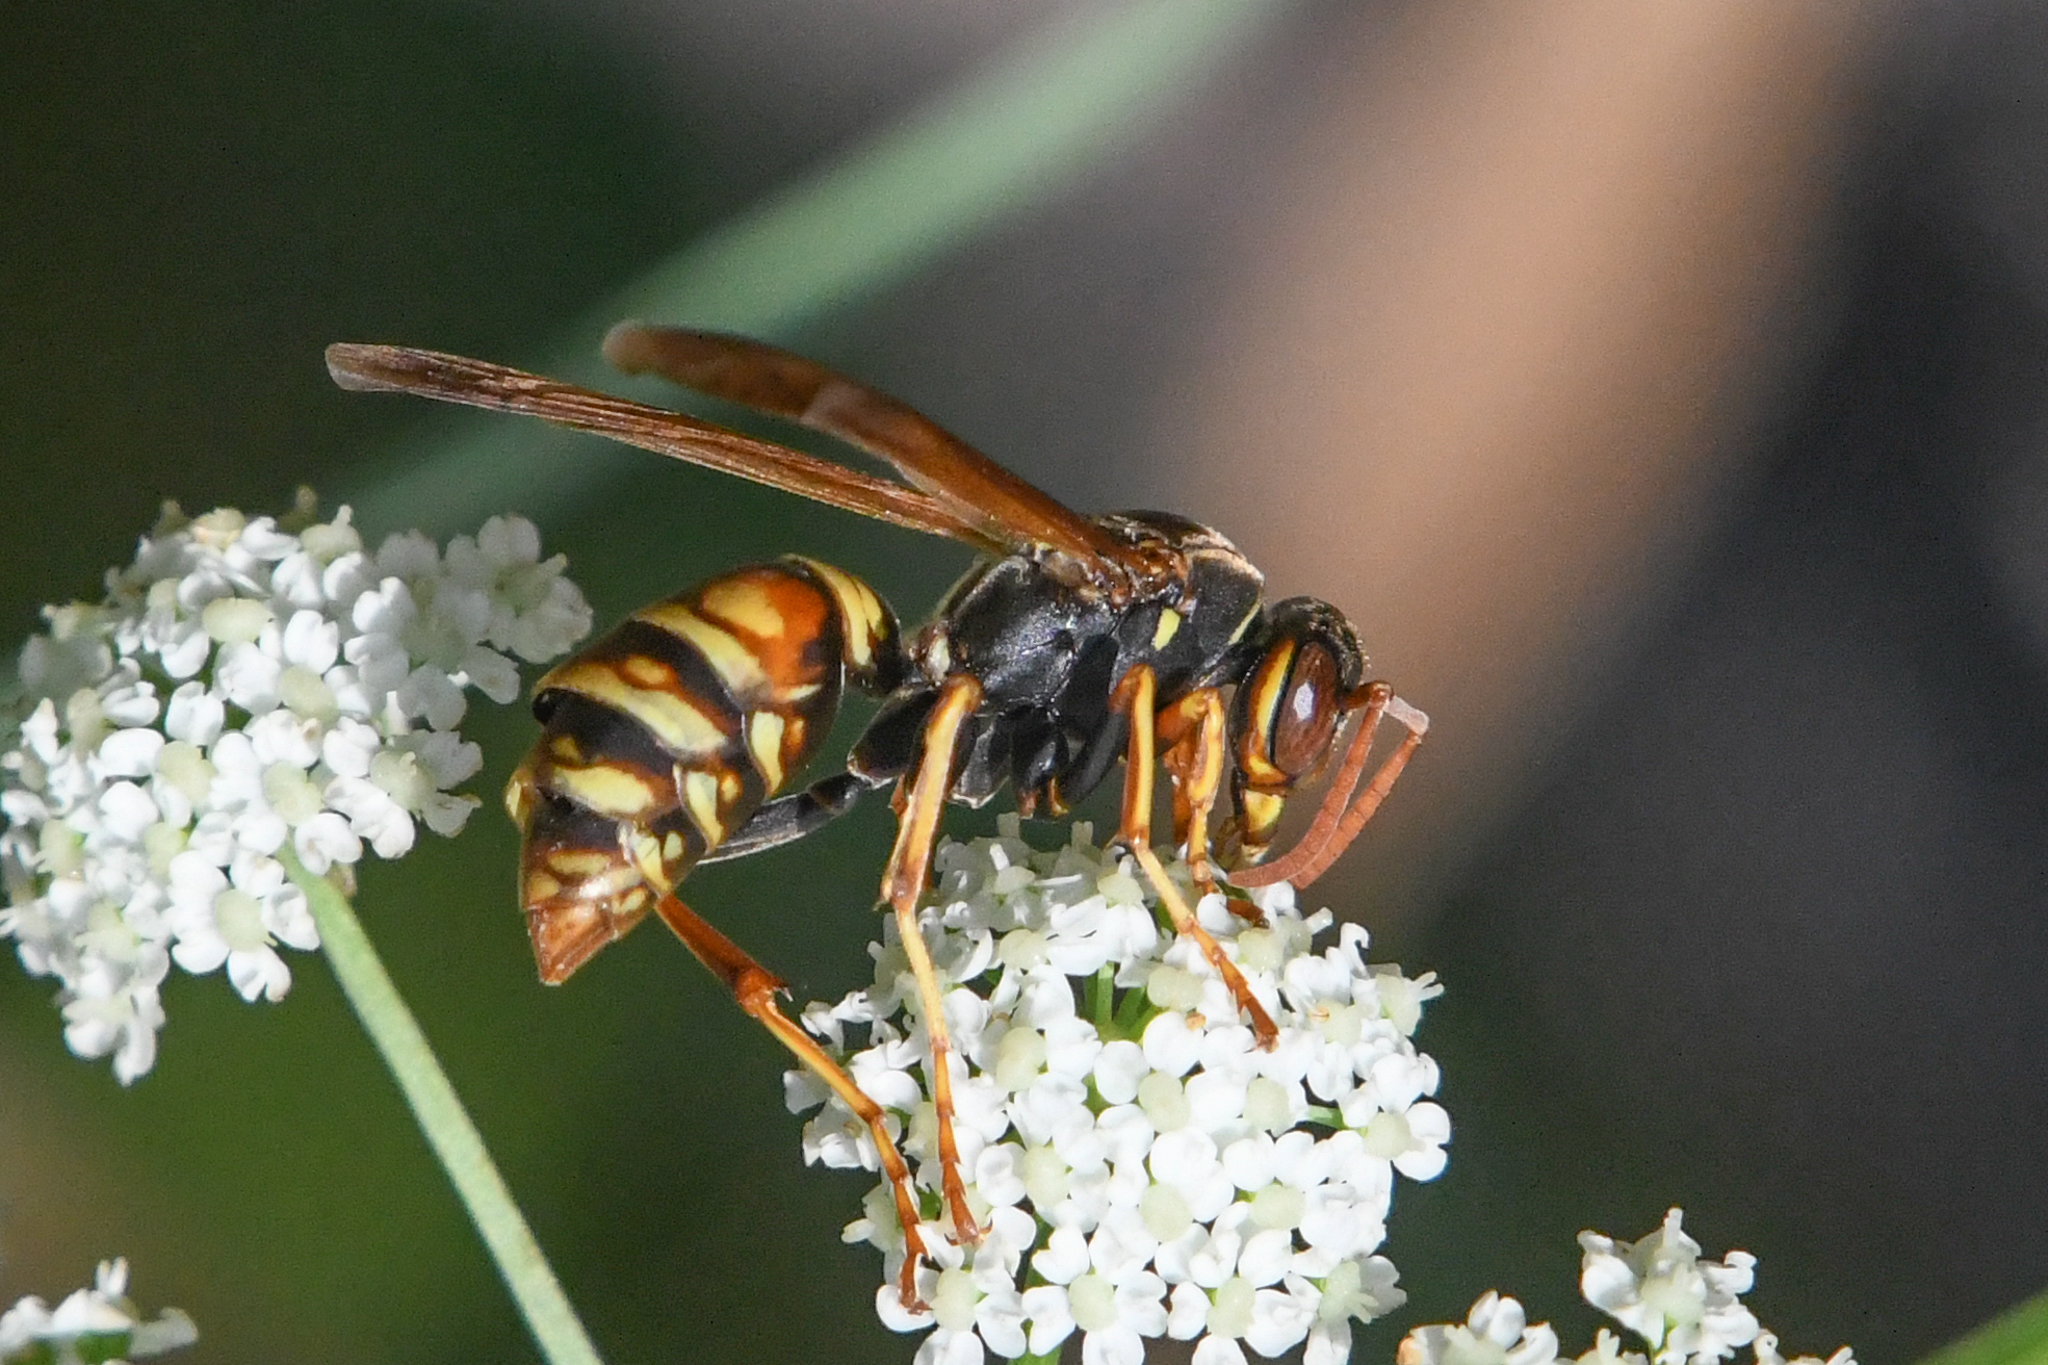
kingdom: Animalia
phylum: Arthropoda
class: Insecta
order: Hymenoptera
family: Eumenidae
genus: Polistes
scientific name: Polistes aurifer
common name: Paper wasp
